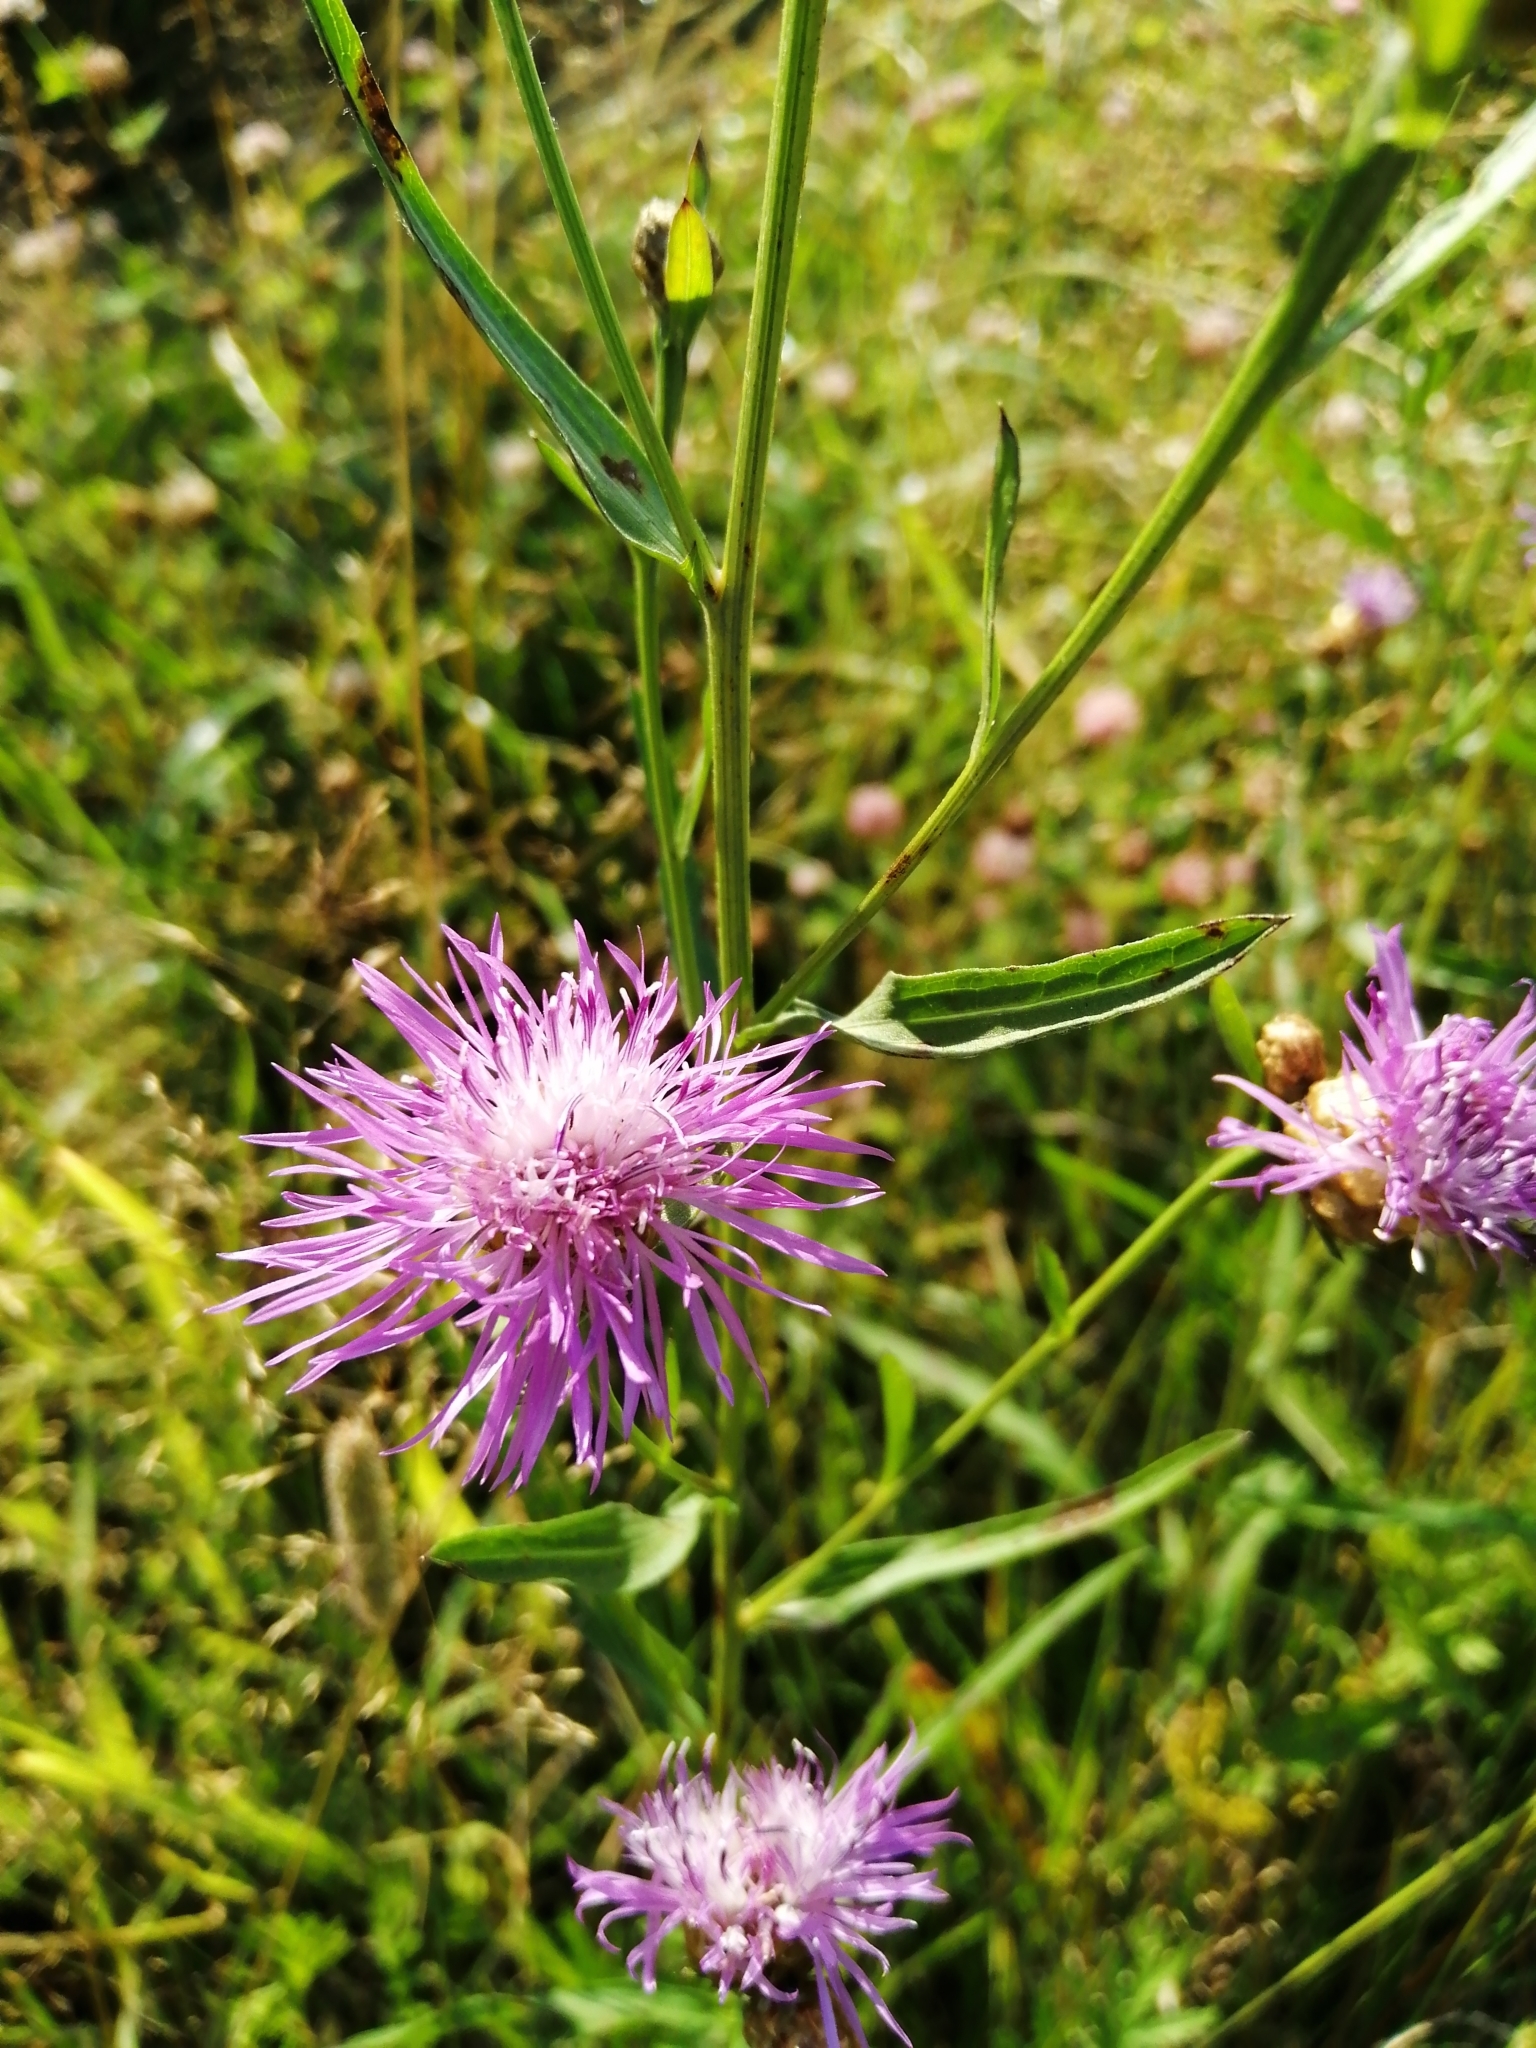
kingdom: Plantae
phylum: Tracheophyta
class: Magnoliopsida
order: Asterales
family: Asteraceae
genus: Centaurea
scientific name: Centaurea jacea
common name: Brown knapweed
